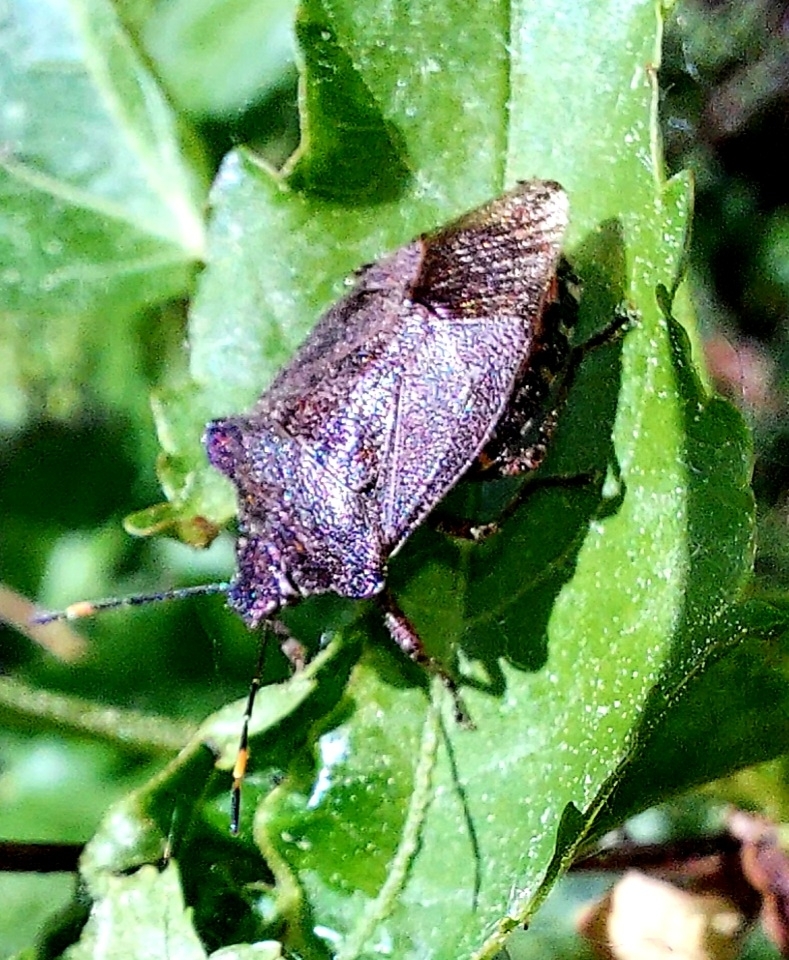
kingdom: Animalia
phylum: Arthropoda
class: Insecta
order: Hemiptera
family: Pentatomidae
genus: Troilus
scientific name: Troilus luridus
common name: Bronze shieldbug
